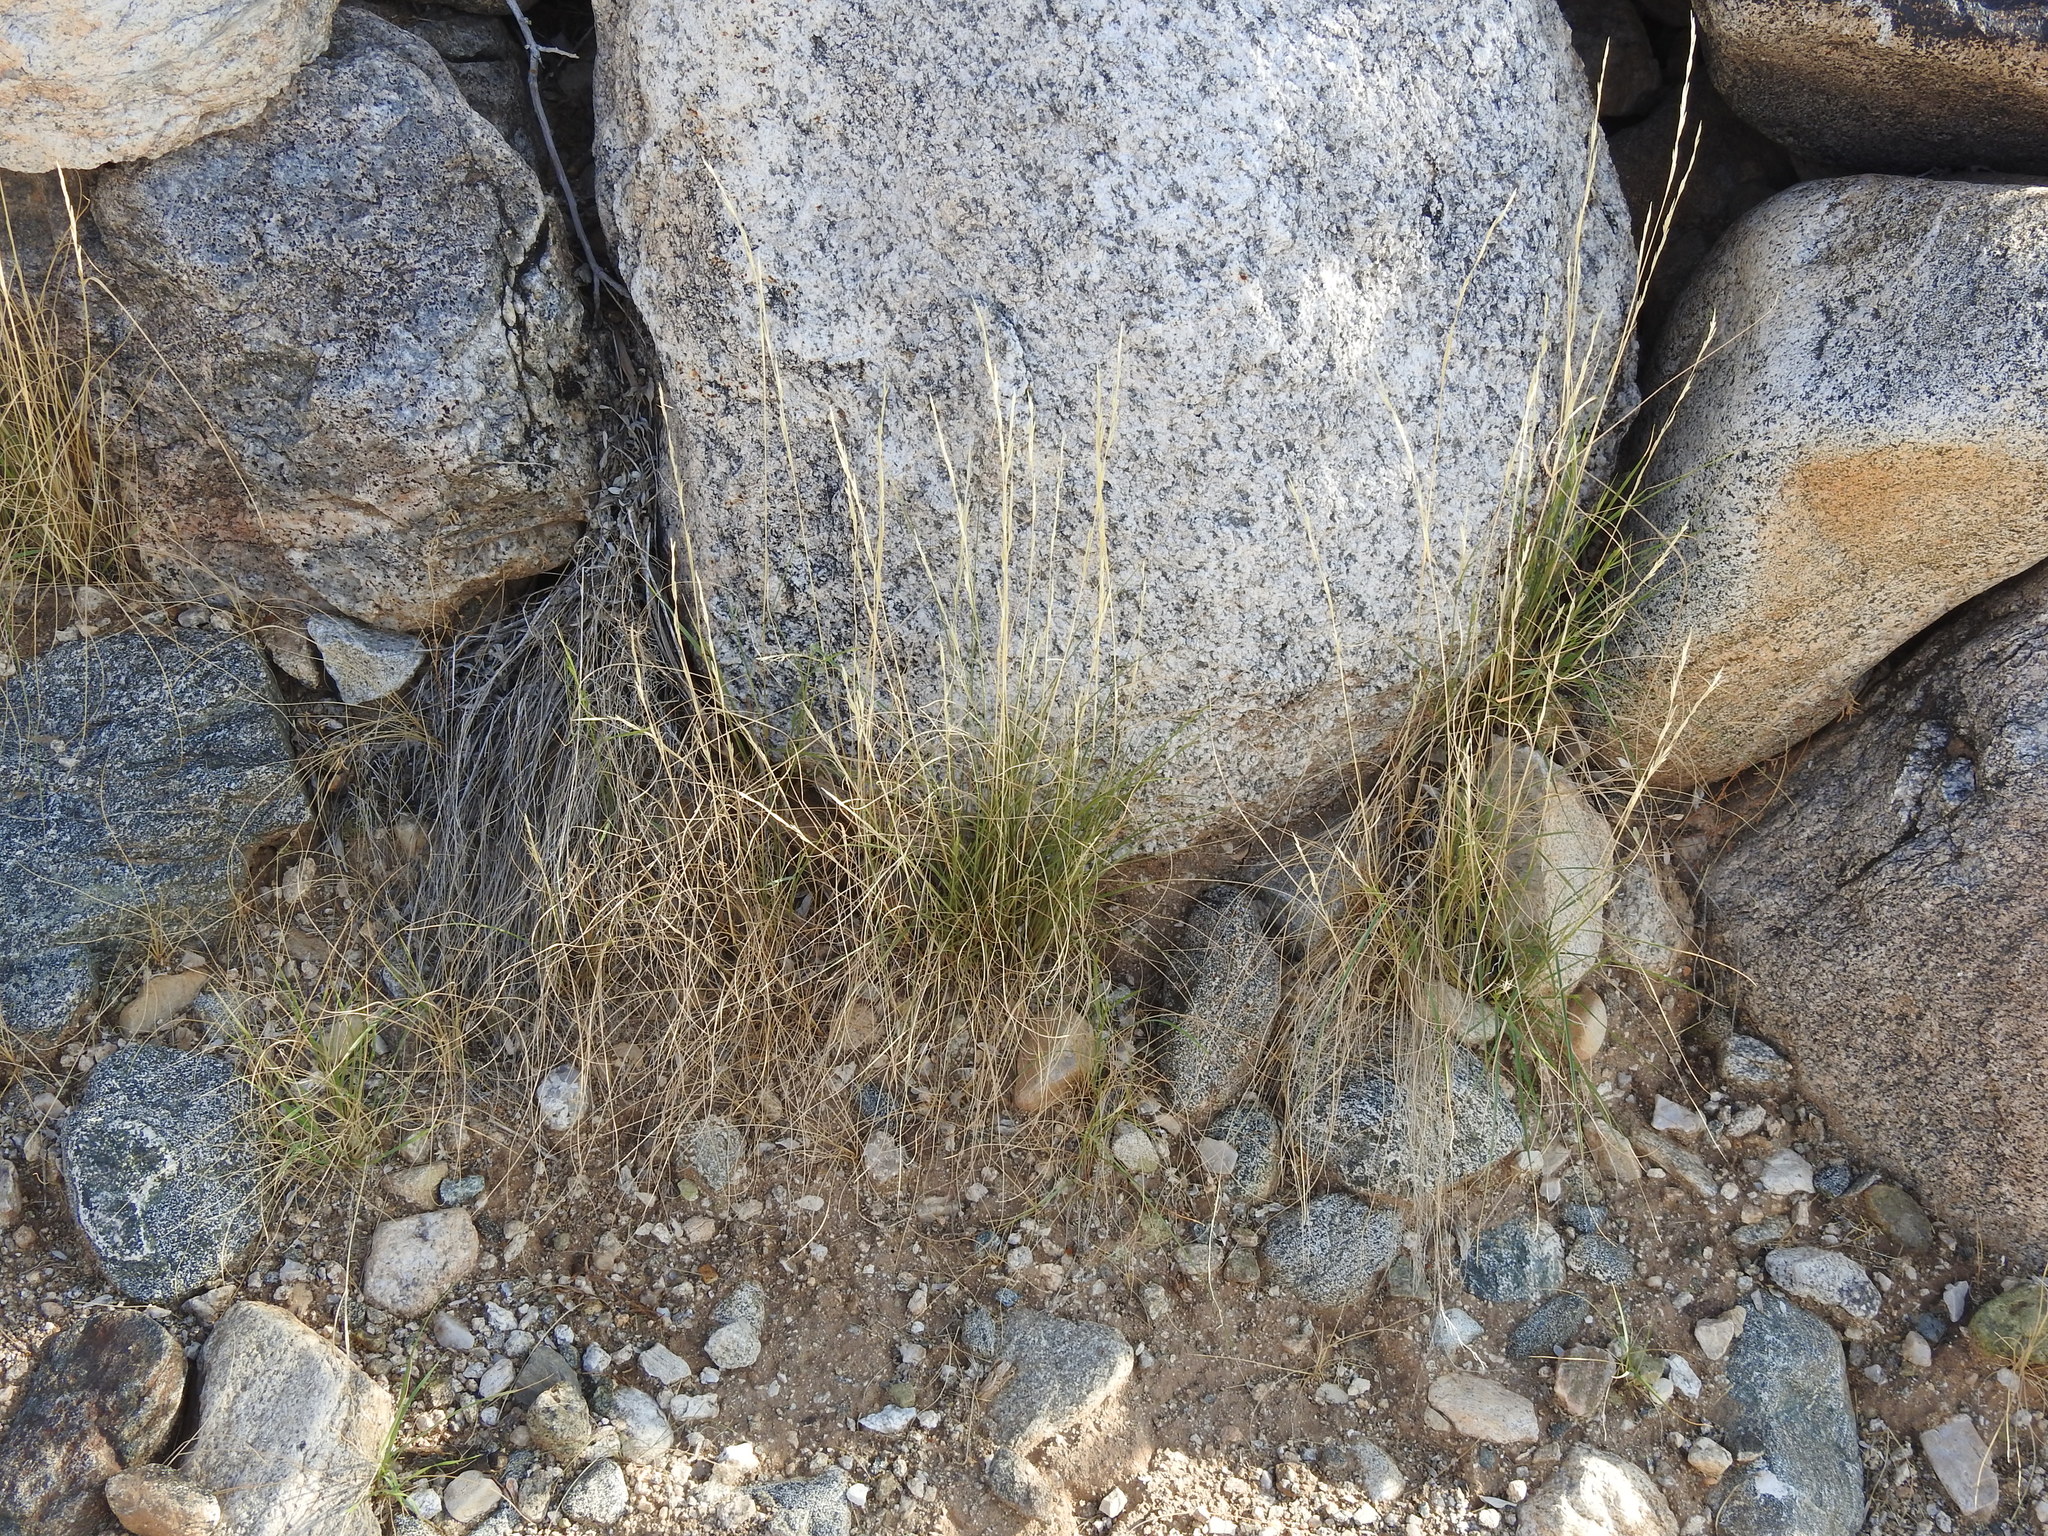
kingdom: Plantae
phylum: Tracheophyta
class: Liliopsida
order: Poales
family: Poaceae
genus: Aristida
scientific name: Aristida adscensionis
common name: Sixweeks threeawn
